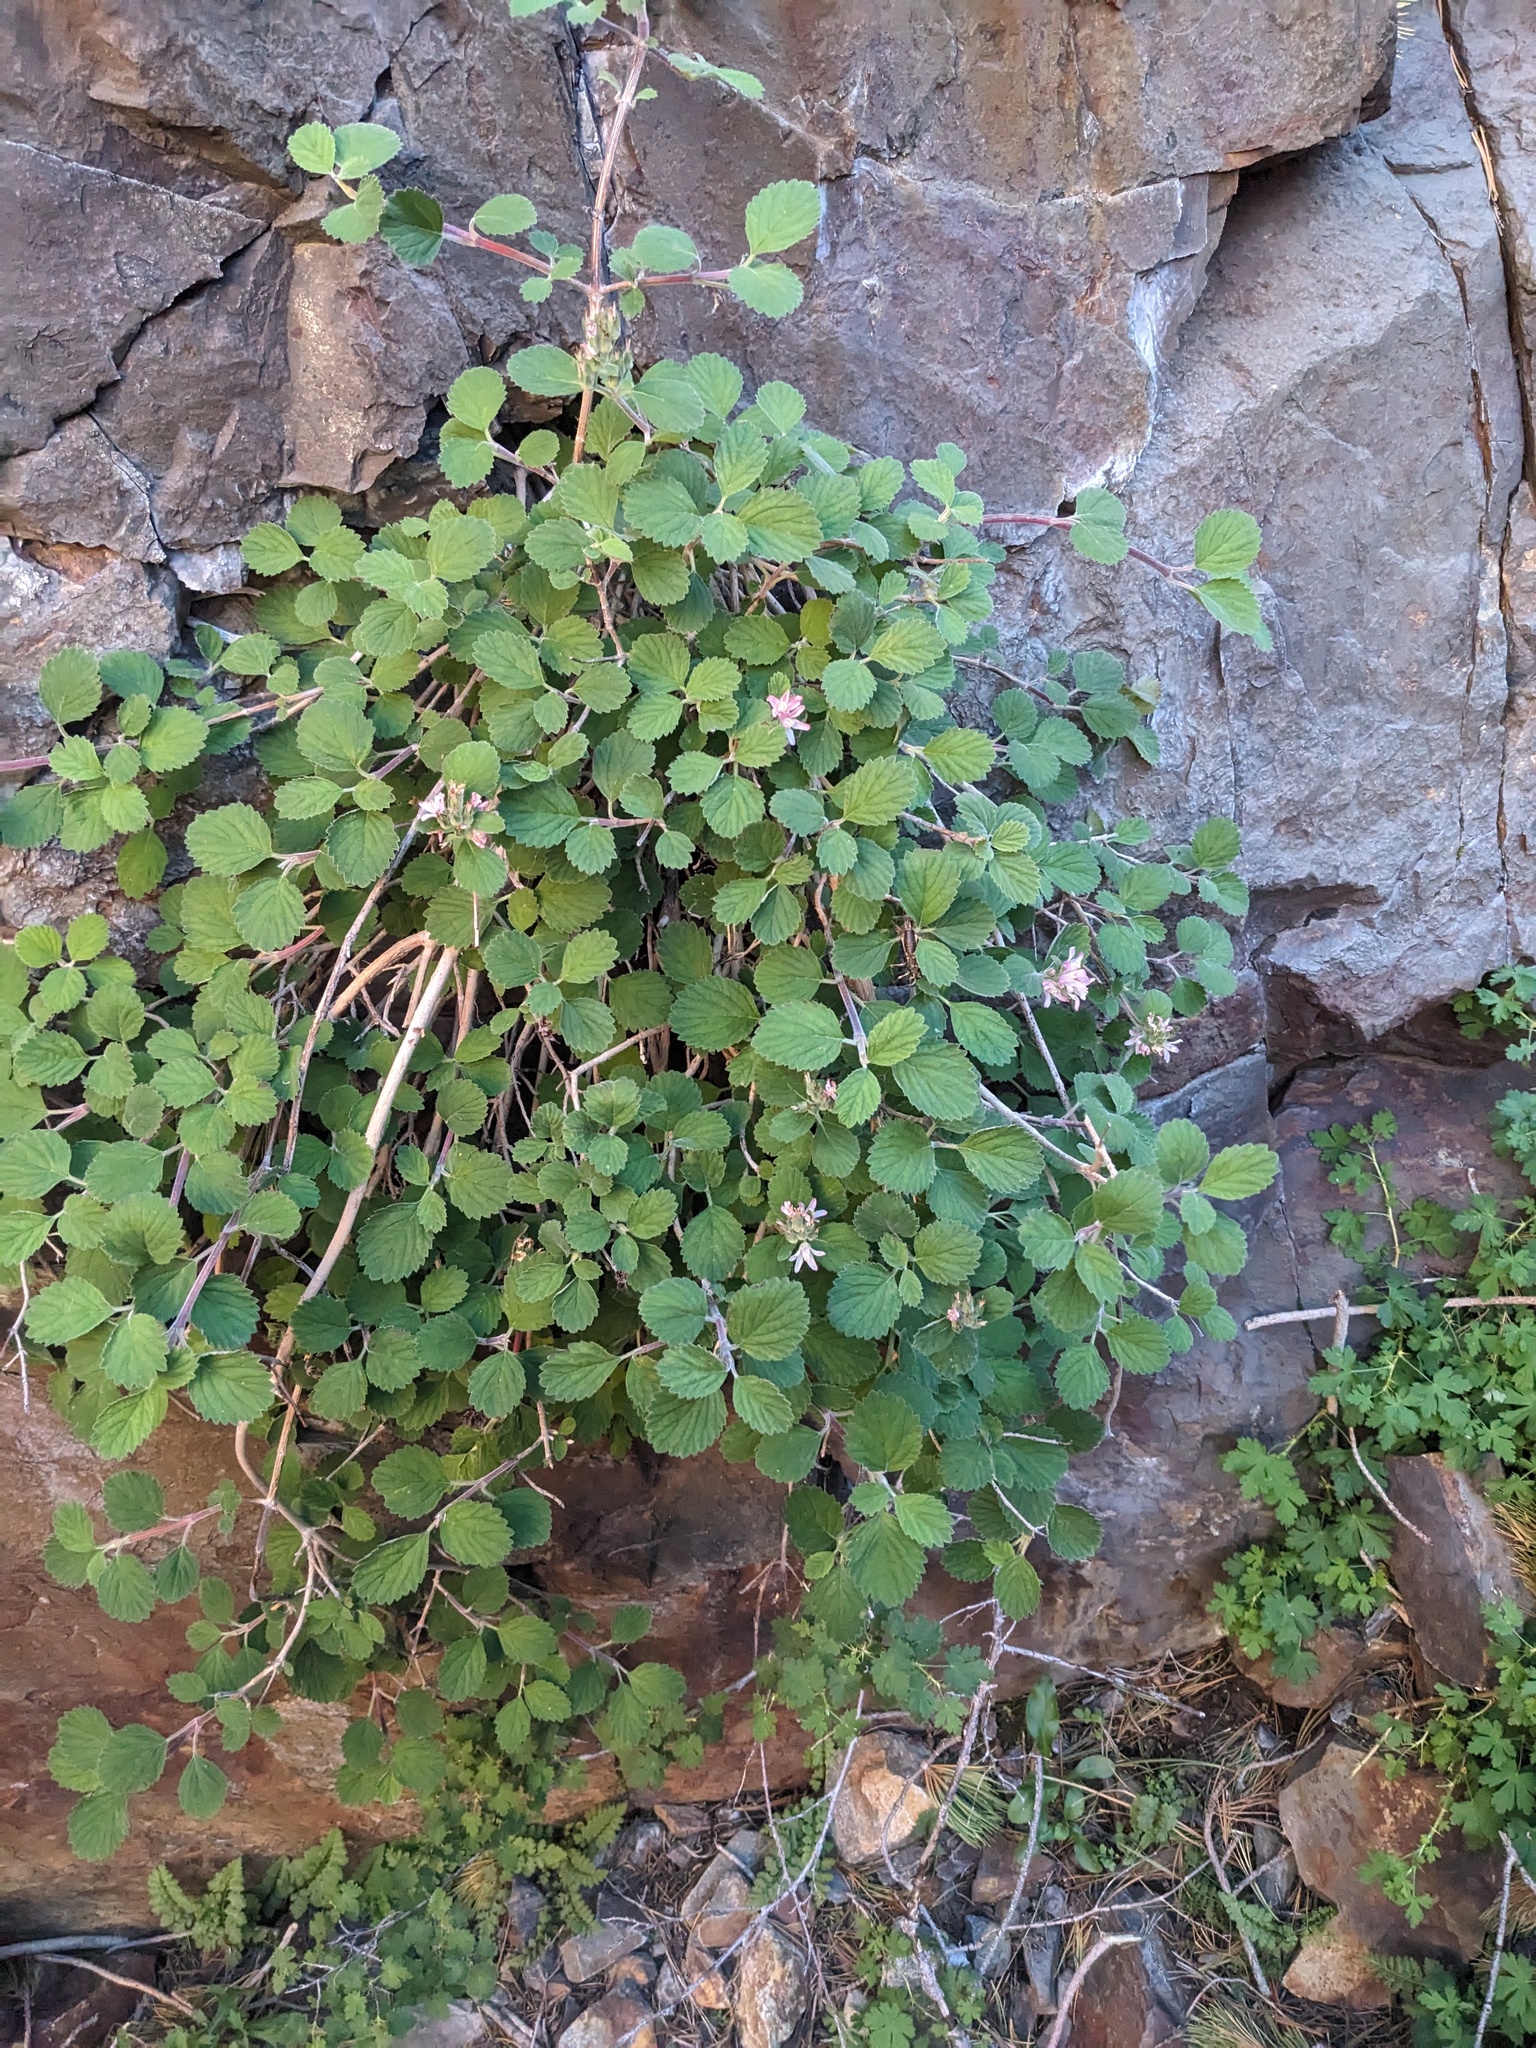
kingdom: Plantae
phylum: Tracheophyta
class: Magnoliopsida
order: Cornales
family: Hydrangeaceae
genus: Jamesia
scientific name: Jamesia americana
